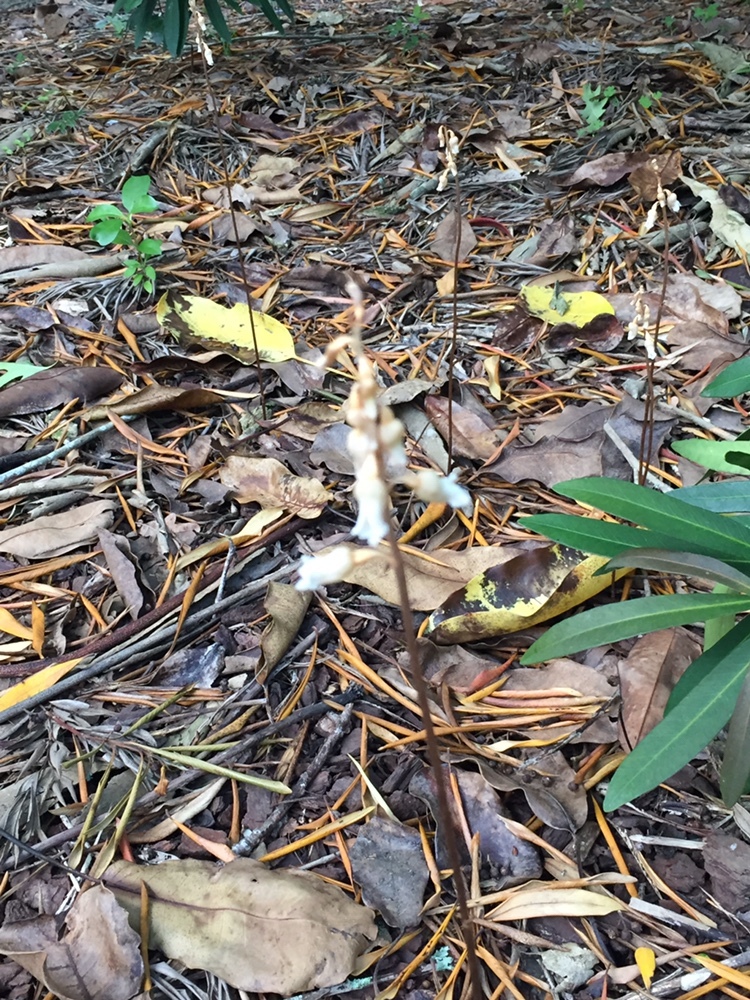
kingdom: Plantae
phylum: Tracheophyta
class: Liliopsida
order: Asparagales
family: Orchidaceae
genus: Gastrodia
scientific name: Gastrodia sesamoides
